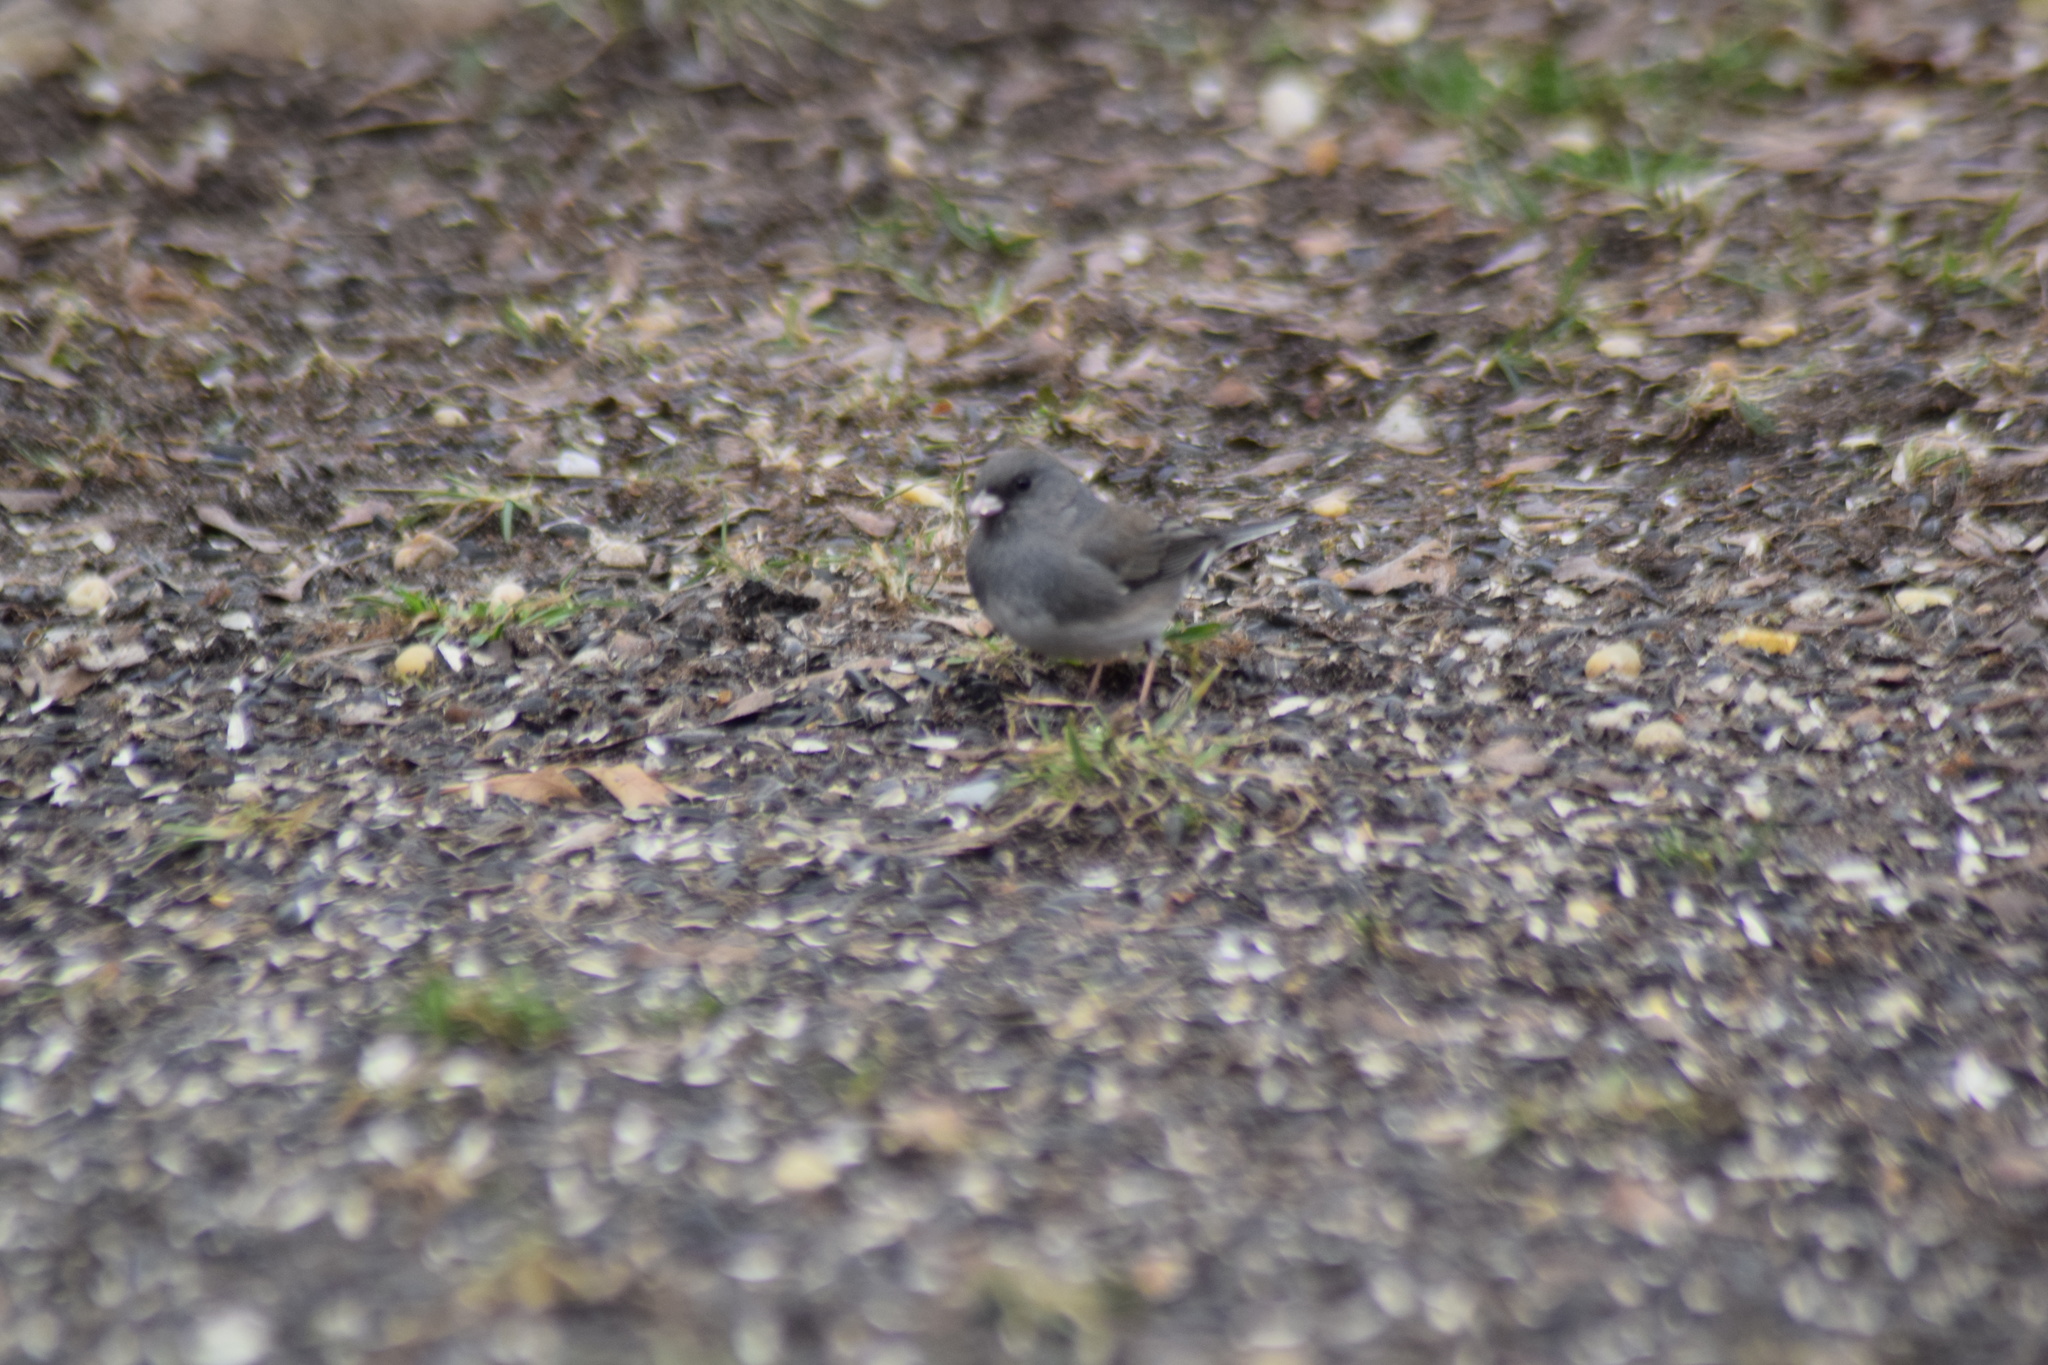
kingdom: Animalia
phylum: Chordata
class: Aves
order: Passeriformes
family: Passerellidae
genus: Junco
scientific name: Junco hyemalis
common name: Dark-eyed junco
